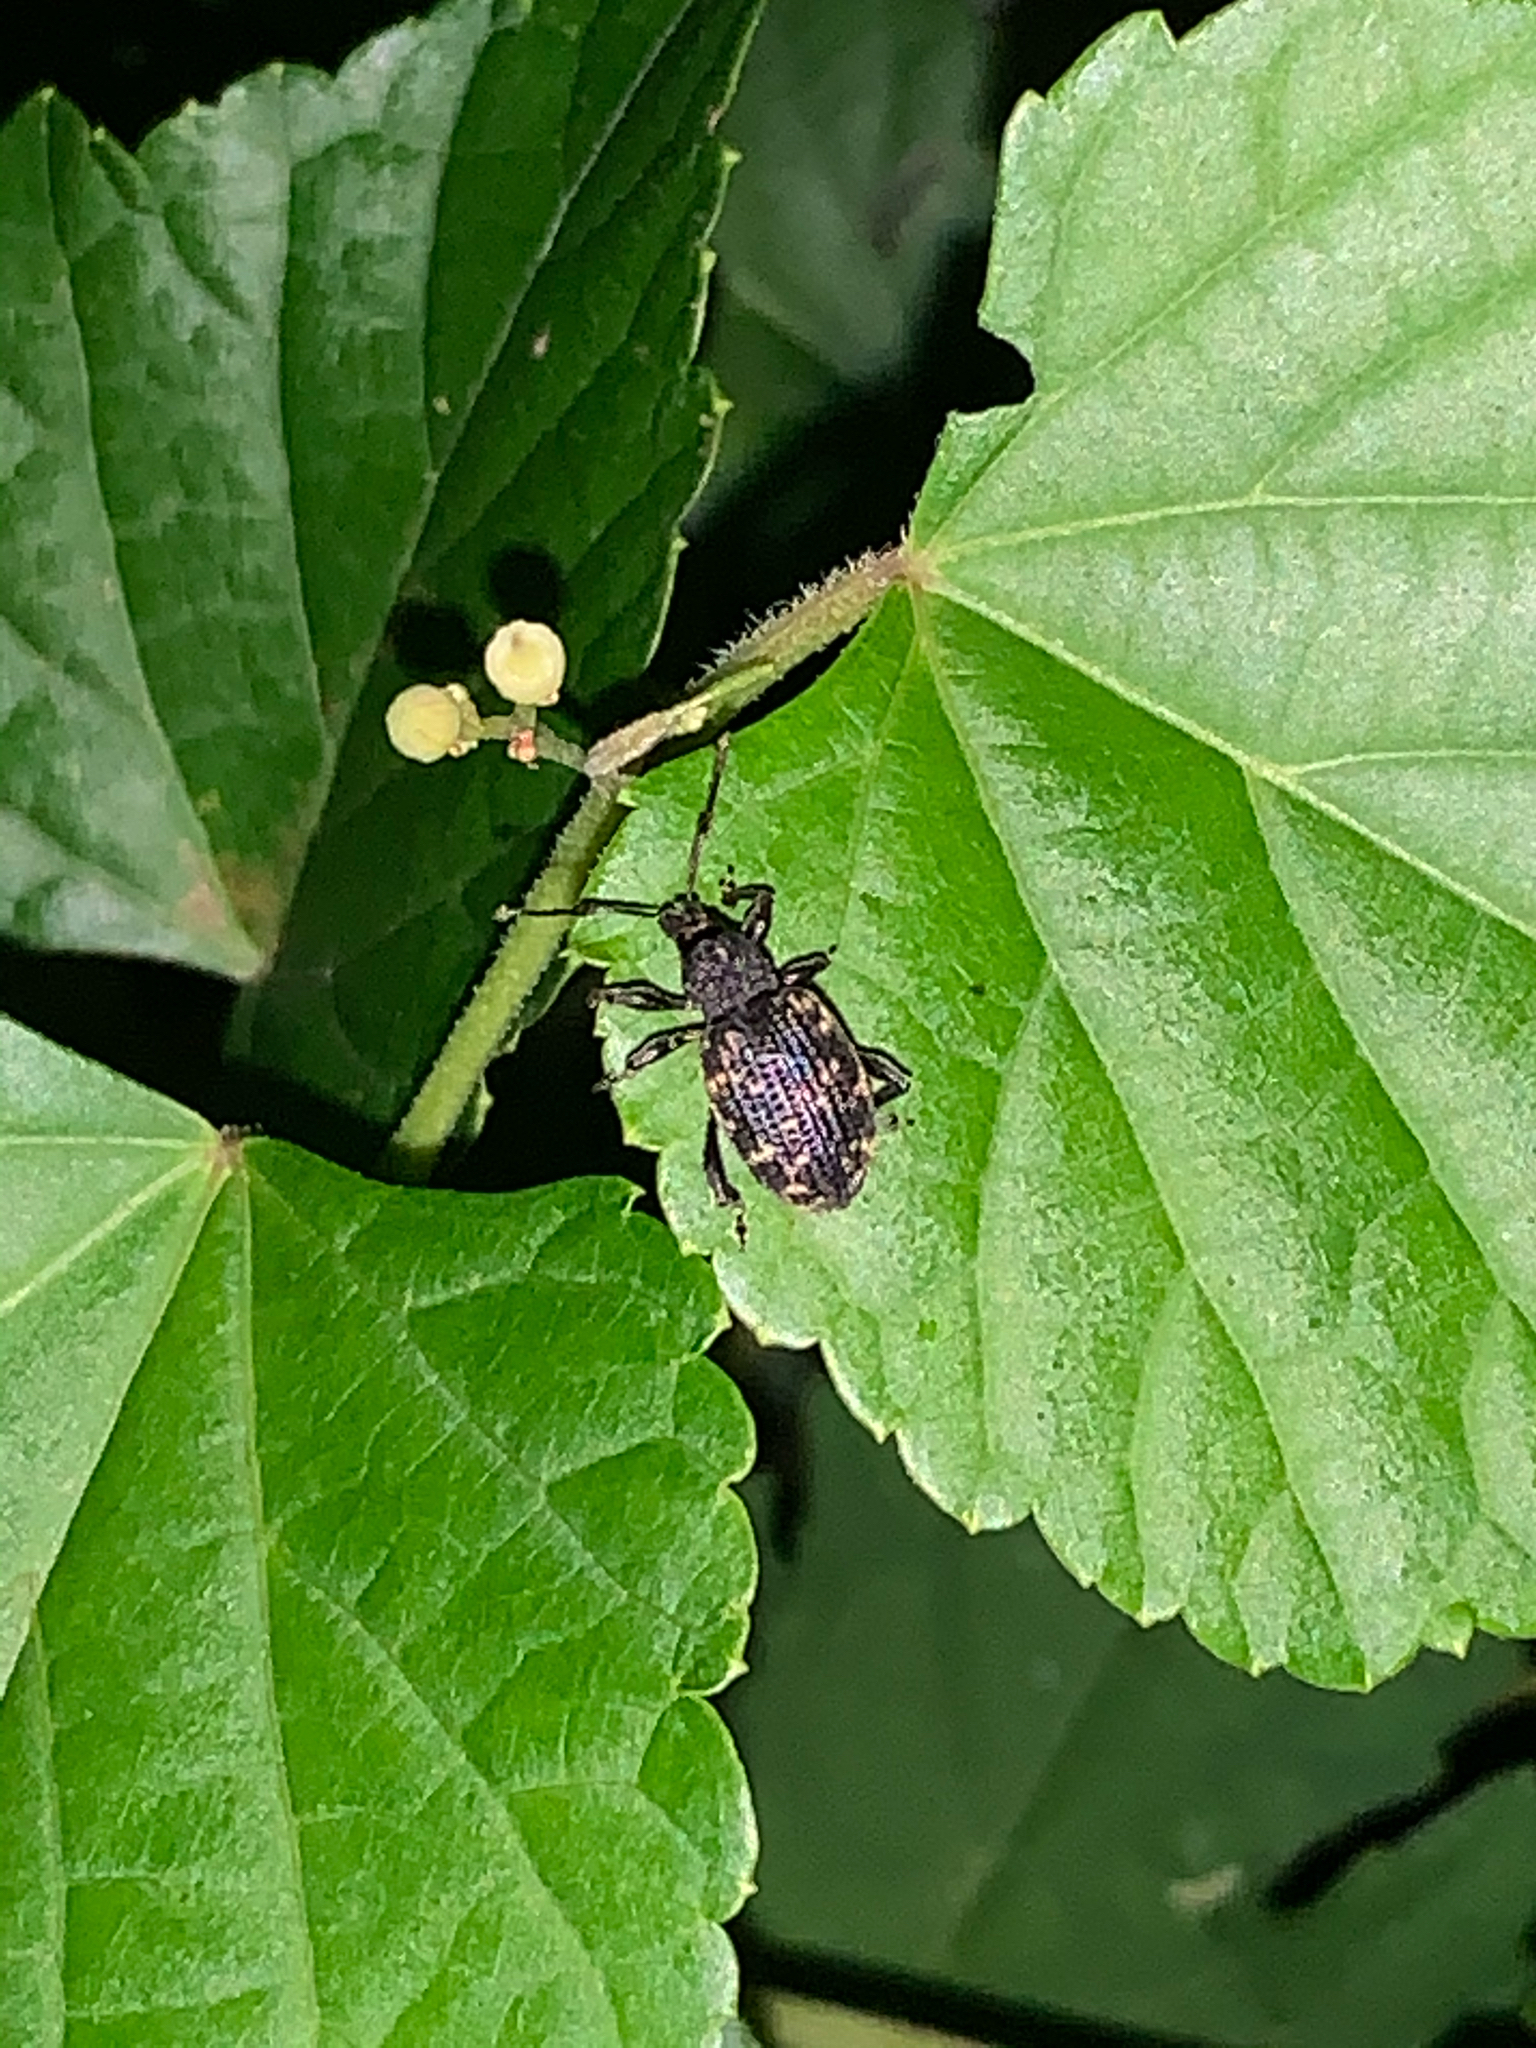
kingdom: Animalia
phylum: Arthropoda
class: Insecta
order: Coleoptera
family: Curculionidae
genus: Otiorhynchus
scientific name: Otiorhynchus ovatus
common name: Strawberry root weevil
